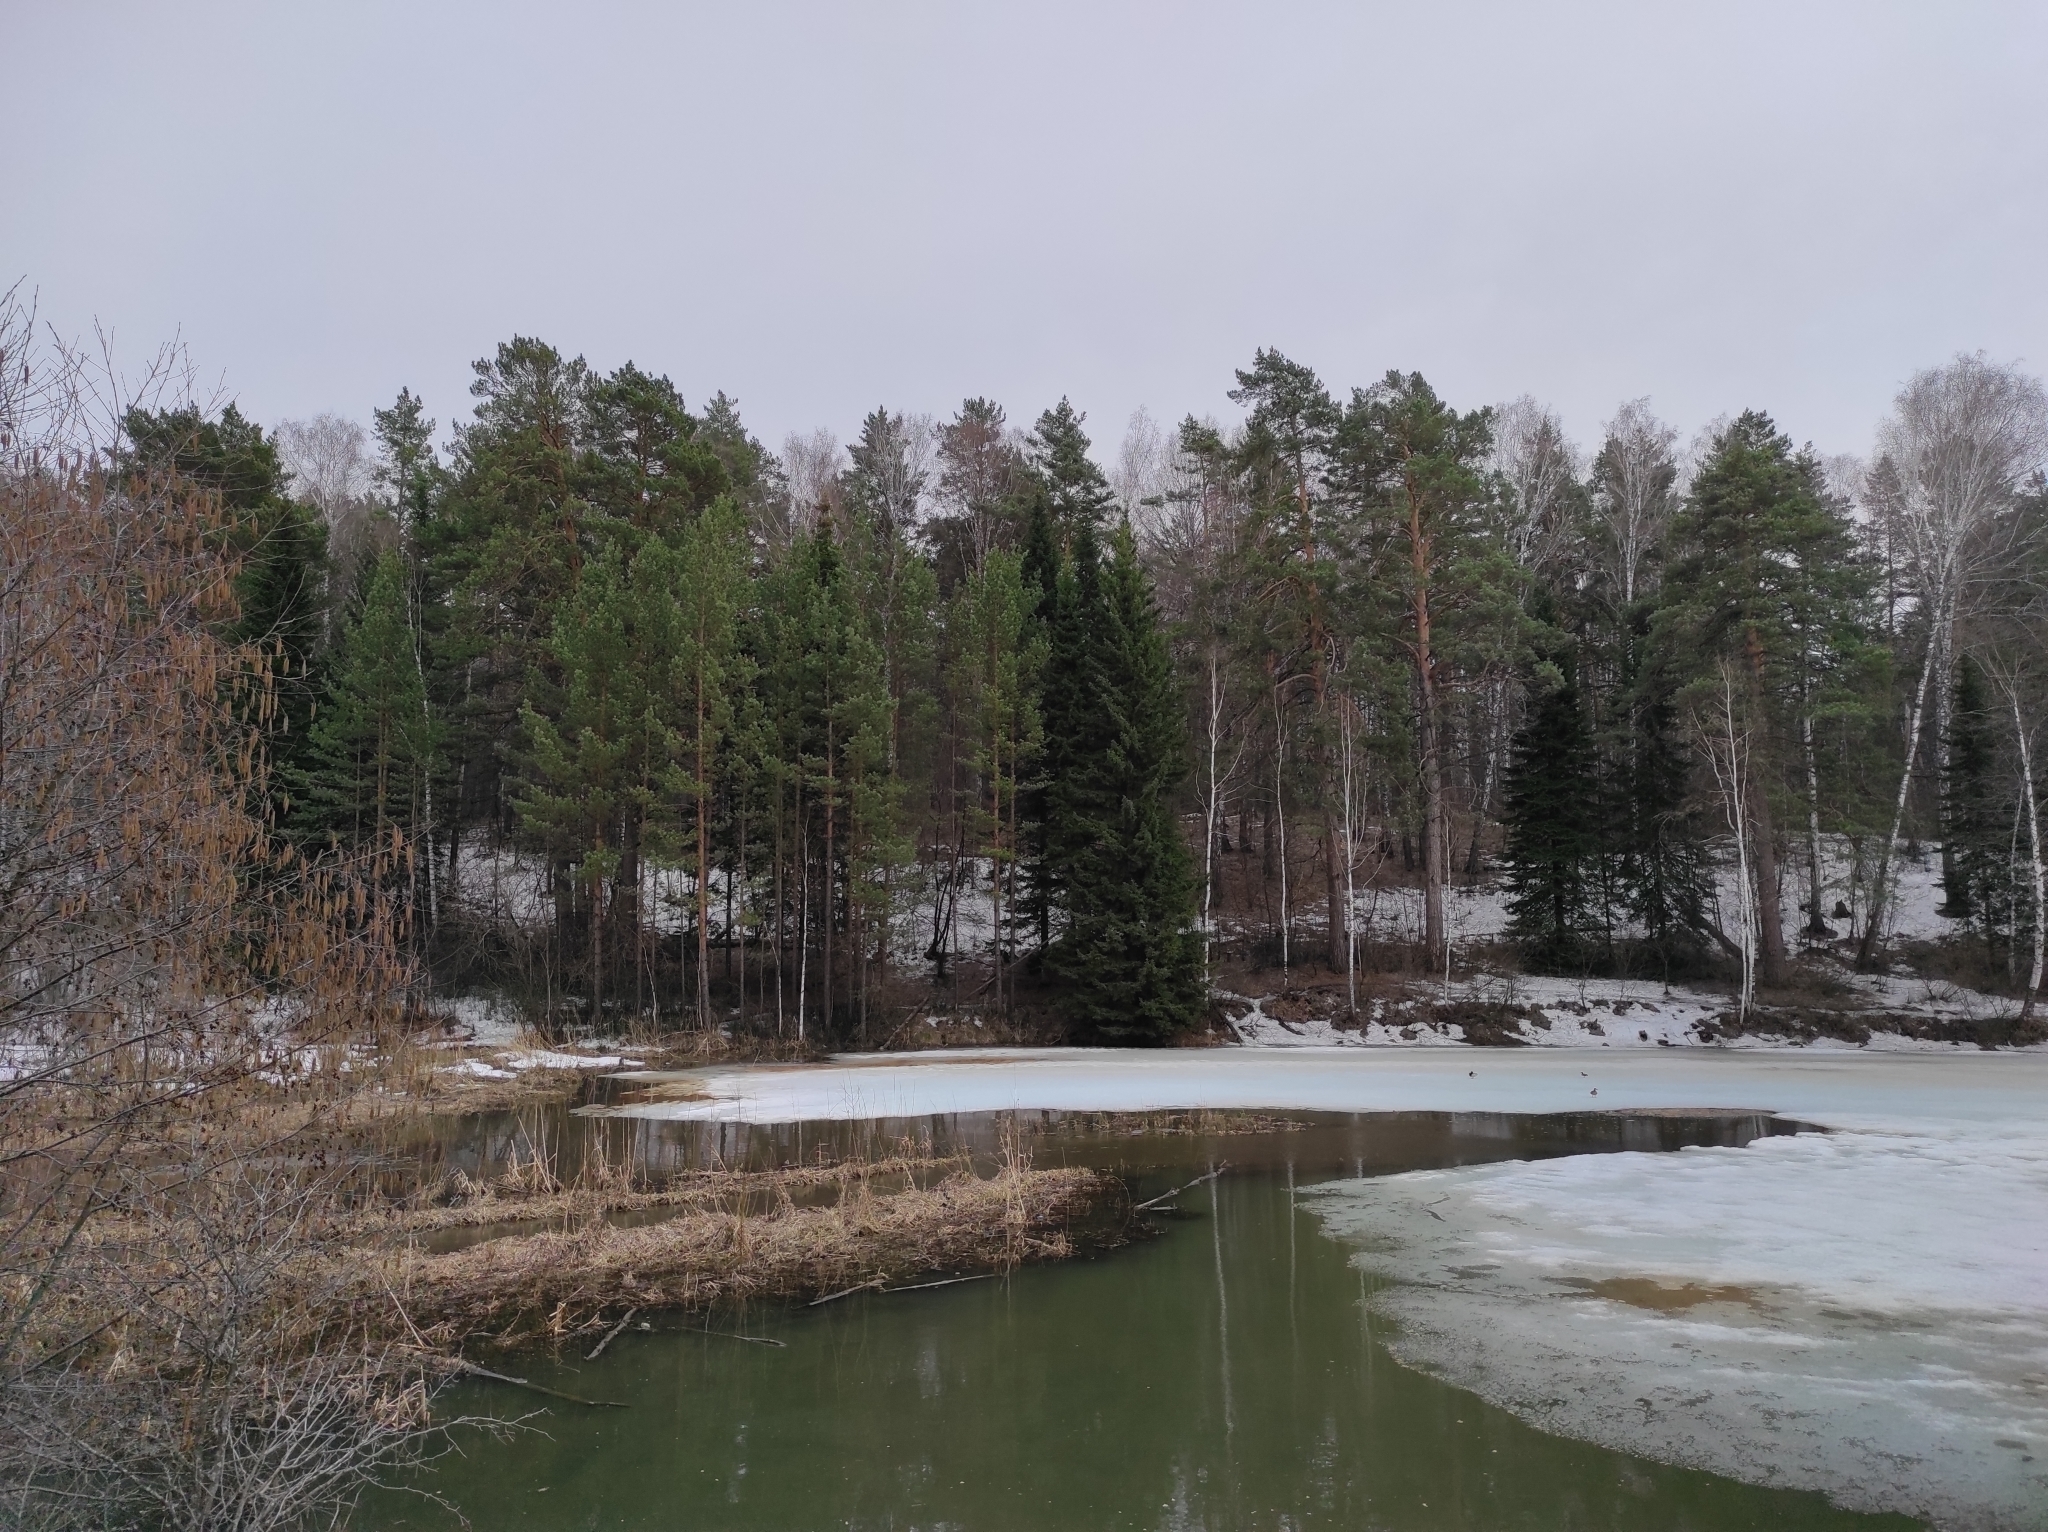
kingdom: Animalia
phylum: Chordata
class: Aves
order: Anseriformes
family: Anatidae
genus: Anas
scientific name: Anas platyrhynchos
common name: Mallard
